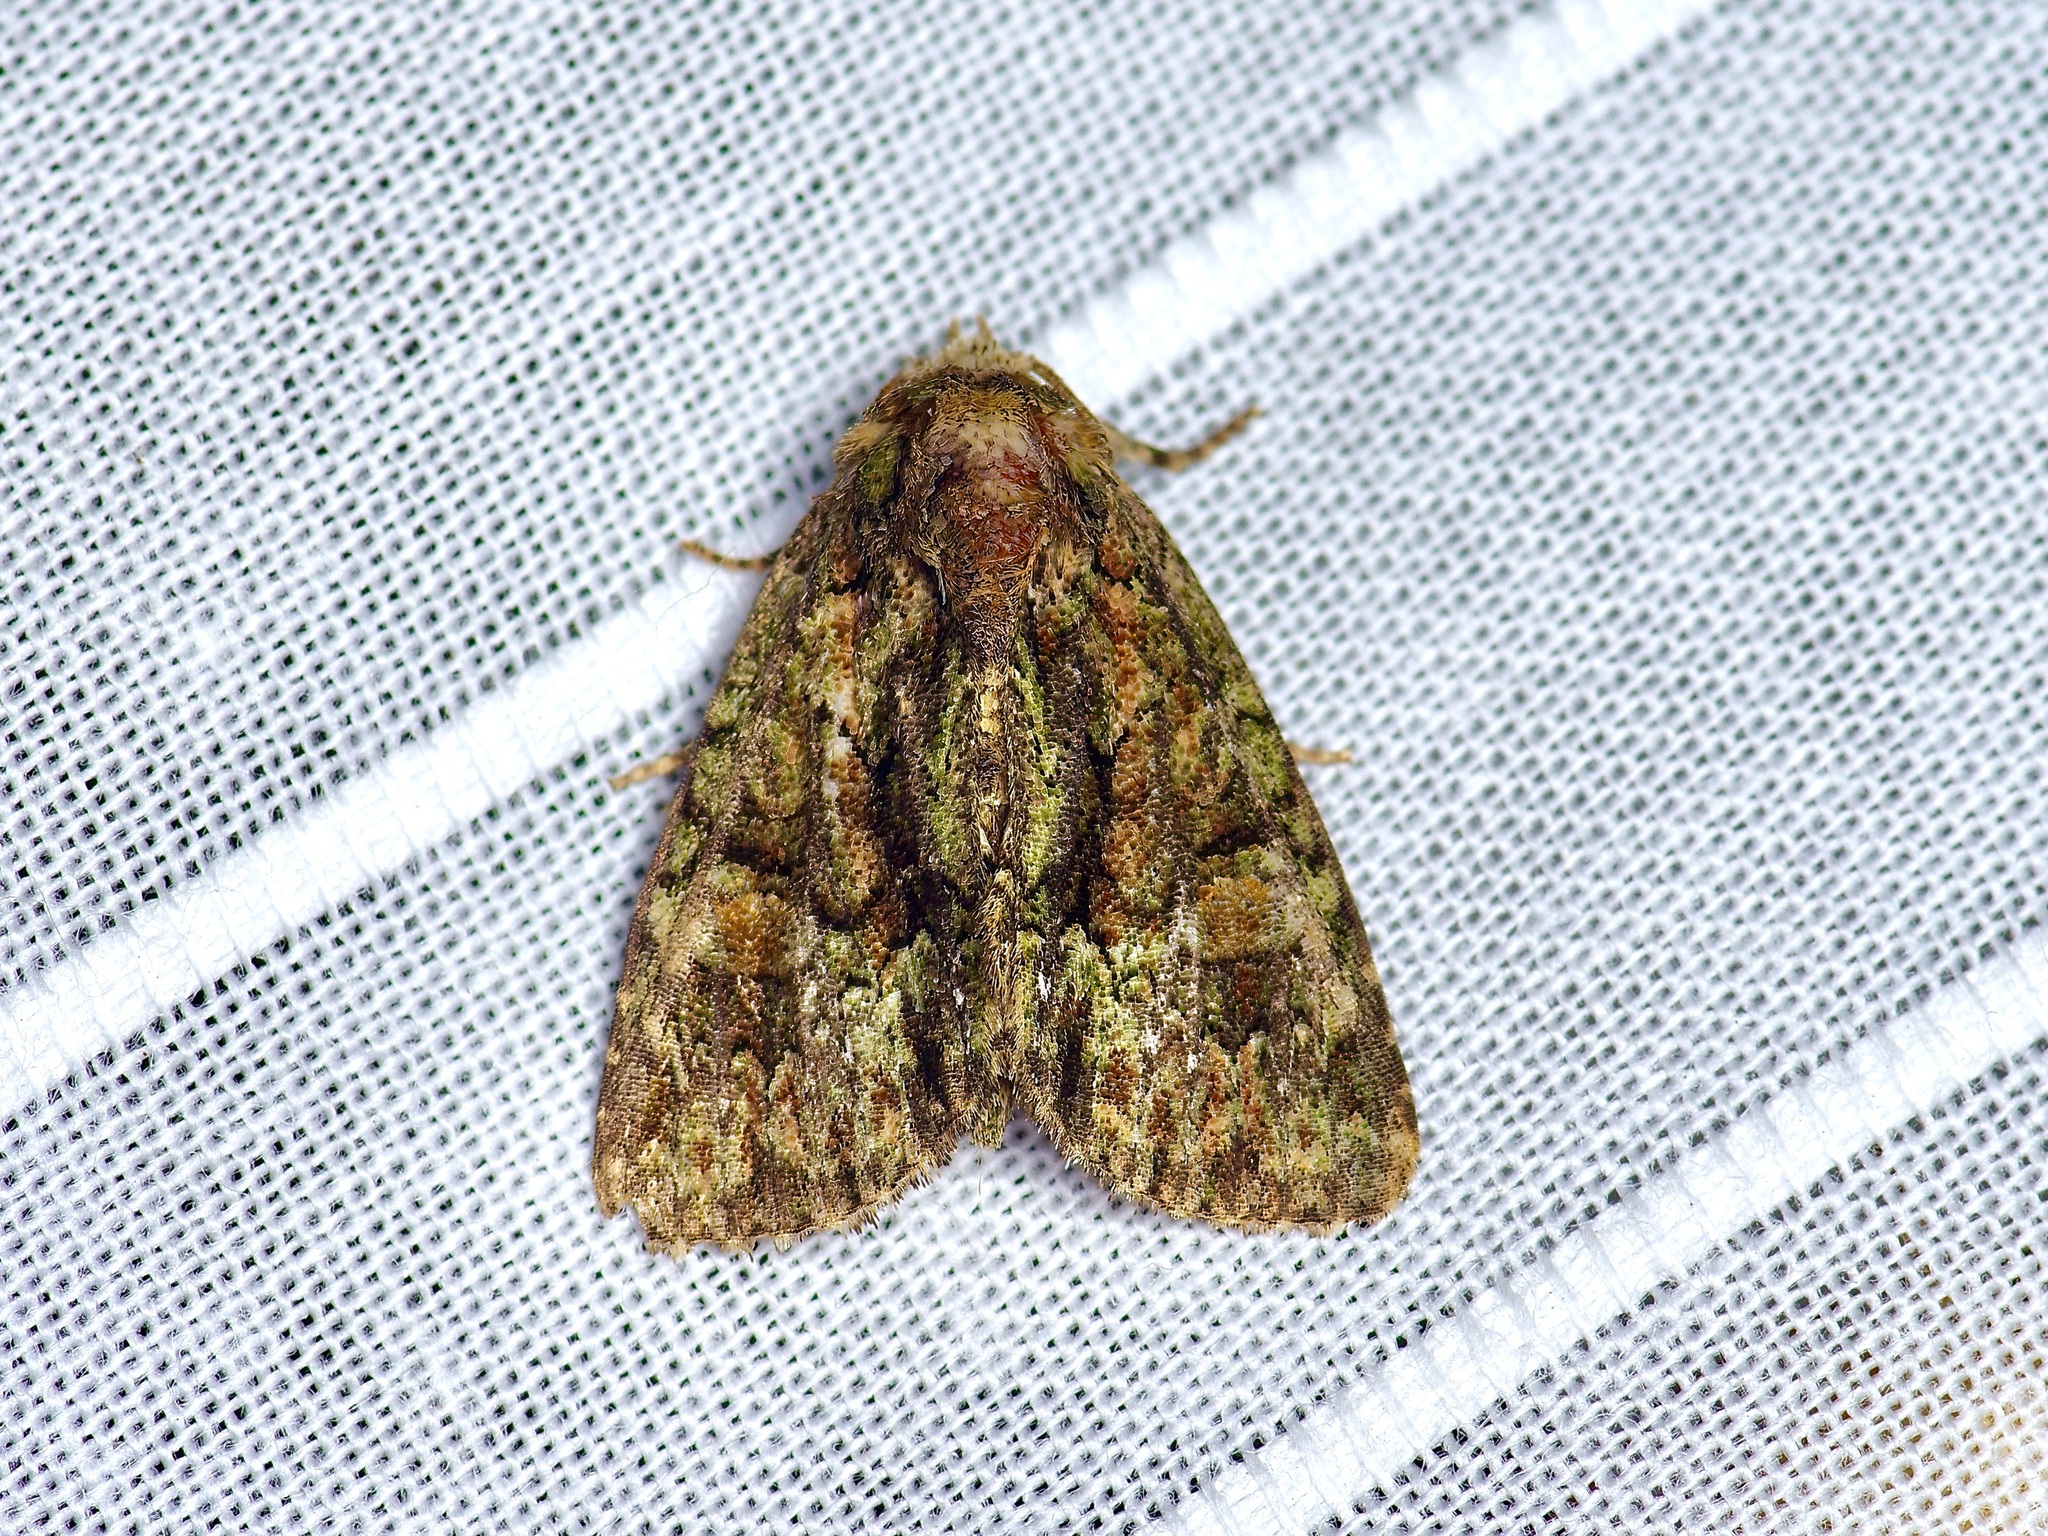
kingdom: Animalia
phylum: Arthropoda
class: Insecta
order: Lepidoptera
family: Noctuidae
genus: Phosphila
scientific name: Phosphila miselioides
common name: Spotted phosphila moth
